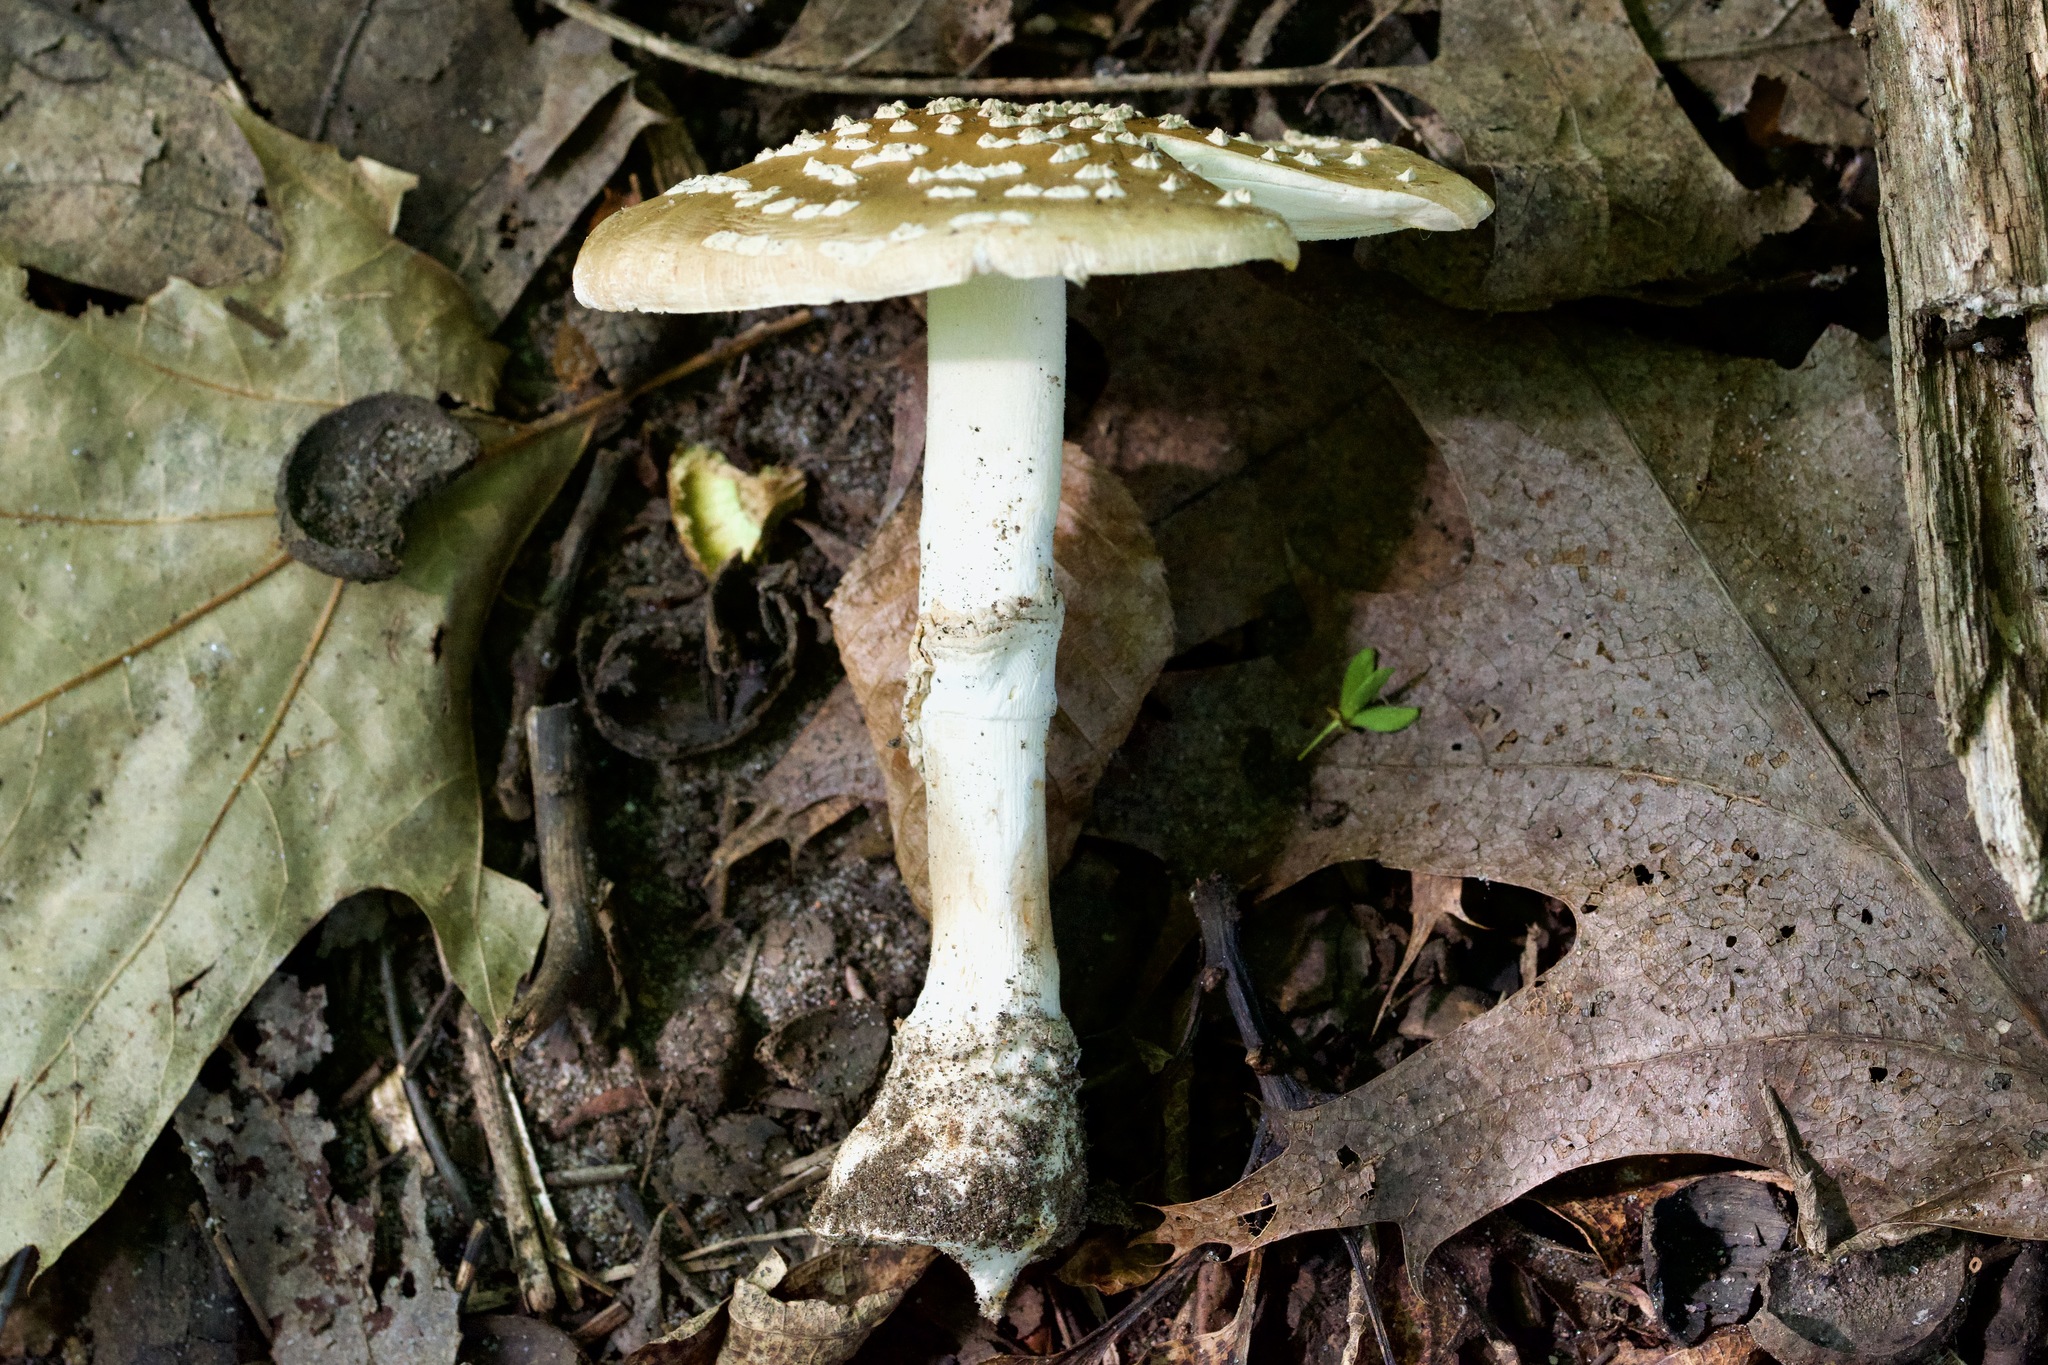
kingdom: Fungi
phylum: Basidiomycota
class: Agaricomycetes
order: Agaricales
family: Amanitaceae
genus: Amanita
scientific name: Amanita rubescens
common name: Blusher
